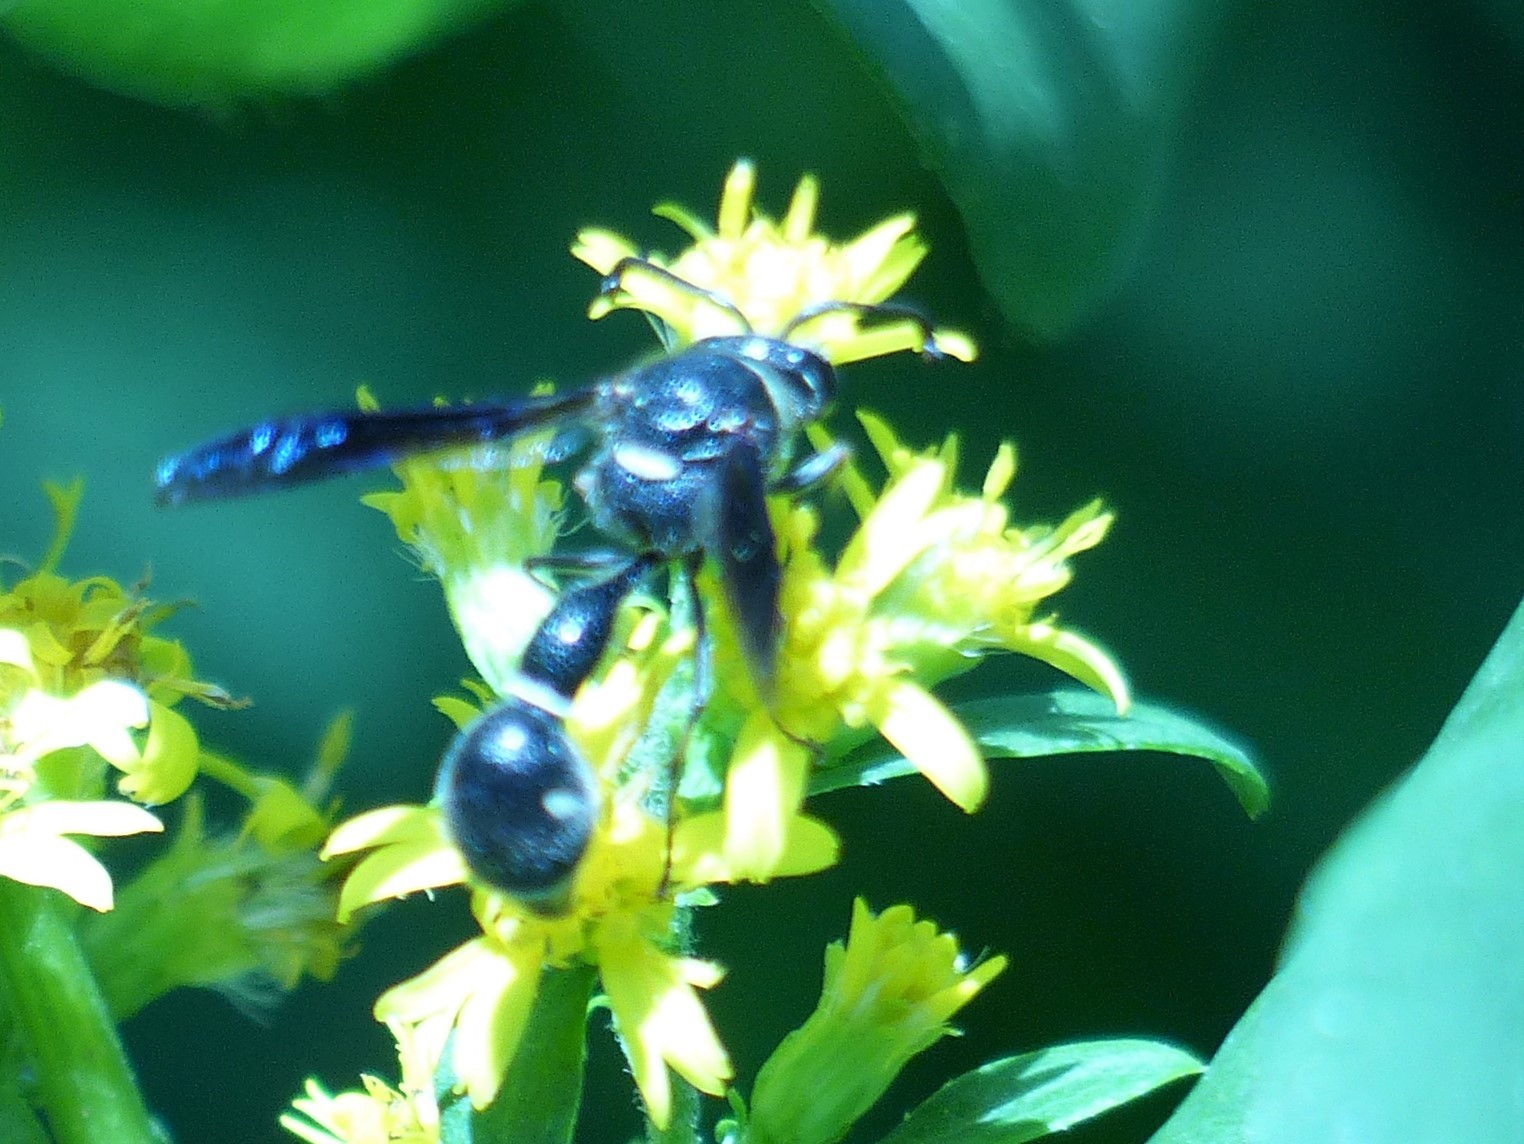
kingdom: Animalia
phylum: Arthropoda
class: Insecta
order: Hymenoptera
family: Vespidae
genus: Eumenes
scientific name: Eumenes fraternus
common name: Fraternal potter wasp
